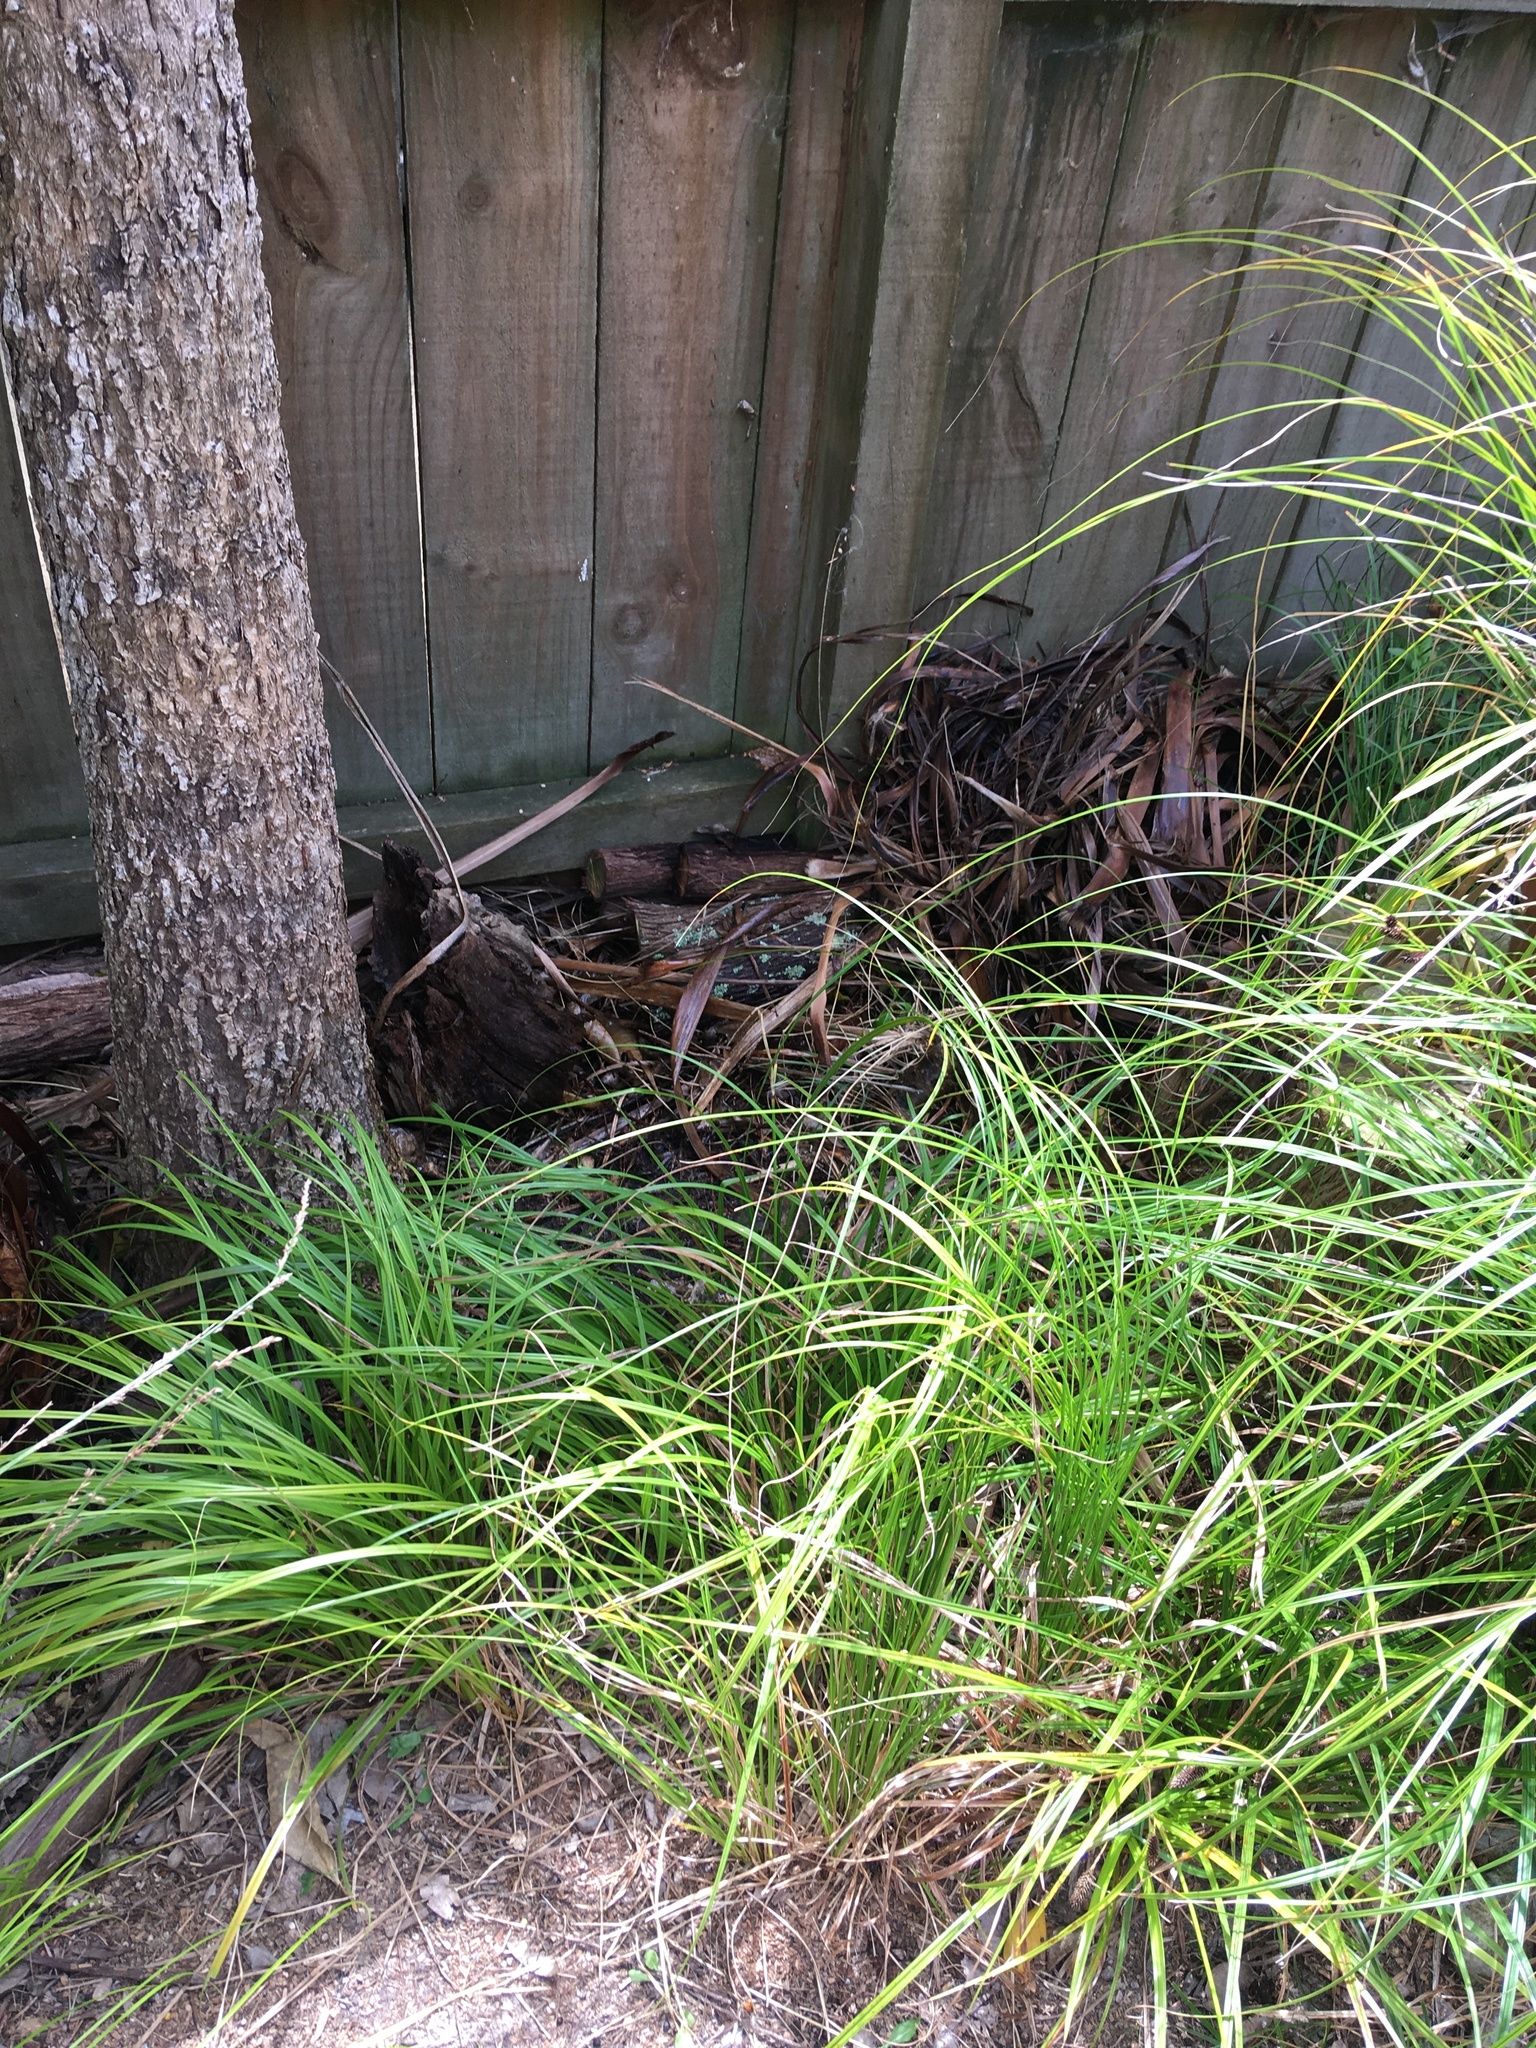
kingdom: Animalia
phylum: Arthropoda
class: Insecta
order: Diptera
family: Syrphidae
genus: Eristalis
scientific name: Eristalis tenax
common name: Drone fly
